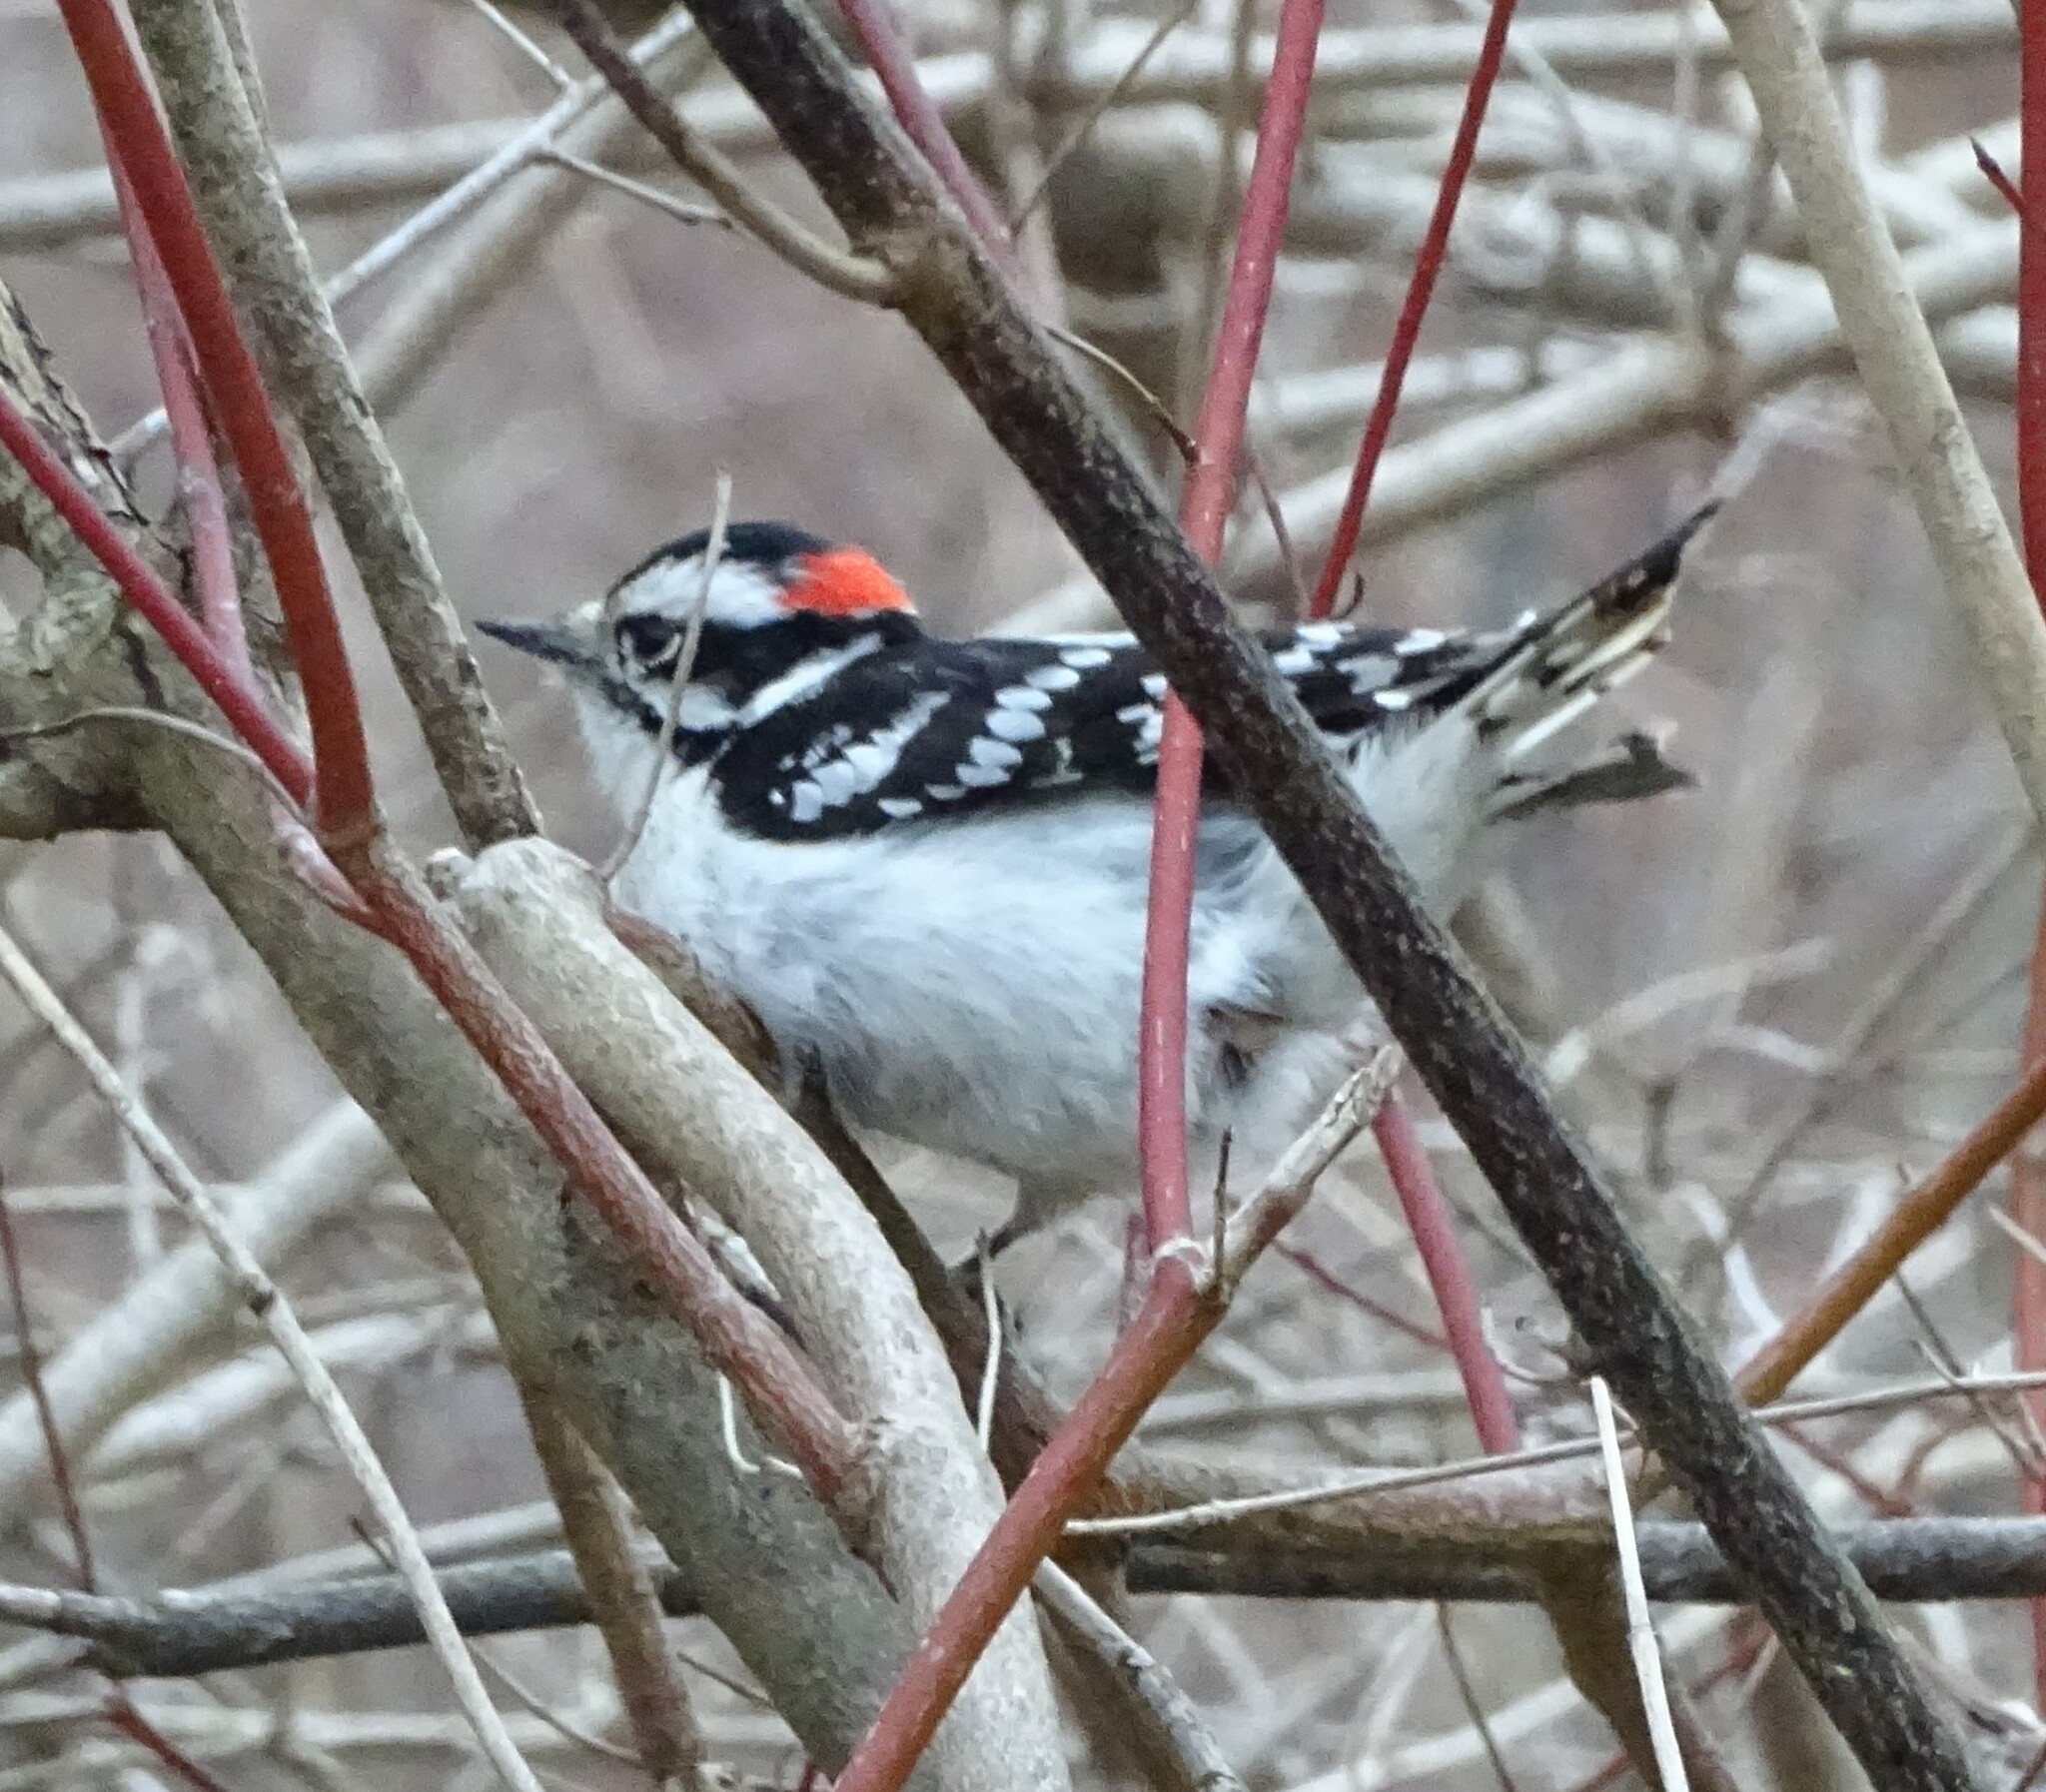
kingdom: Animalia
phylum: Chordata
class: Aves
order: Piciformes
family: Picidae
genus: Dryobates
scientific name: Dryobates pubescens
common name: Downy woodpecker
